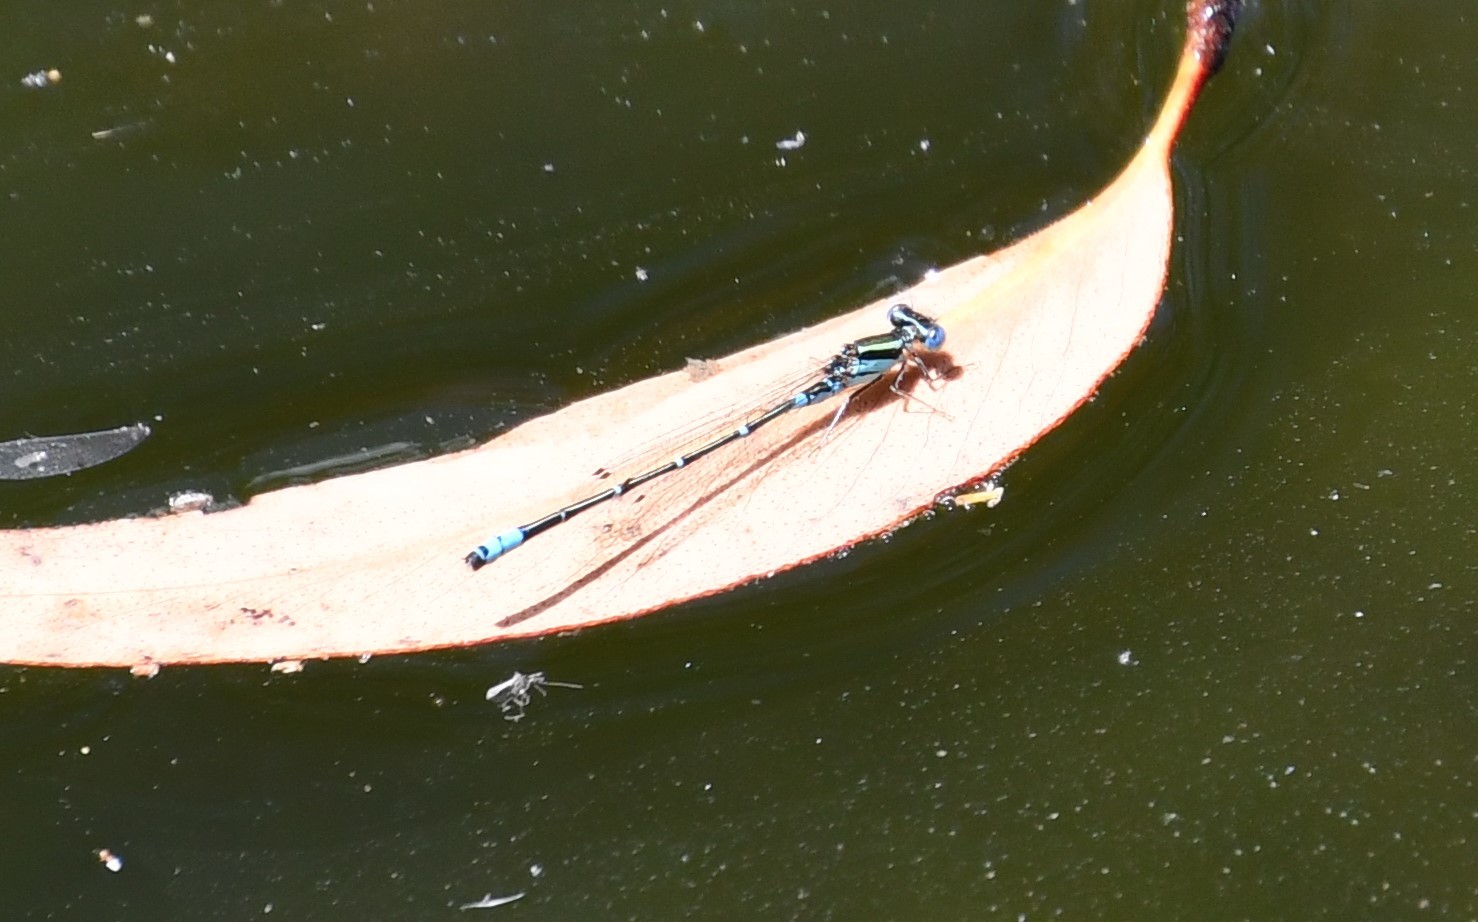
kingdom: Animalia
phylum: Arthropoda
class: Insecta
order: Odonata
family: Coenagrionidae
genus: Austroagrion
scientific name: Austroagrion watsoni
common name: Eastern billabongfly
